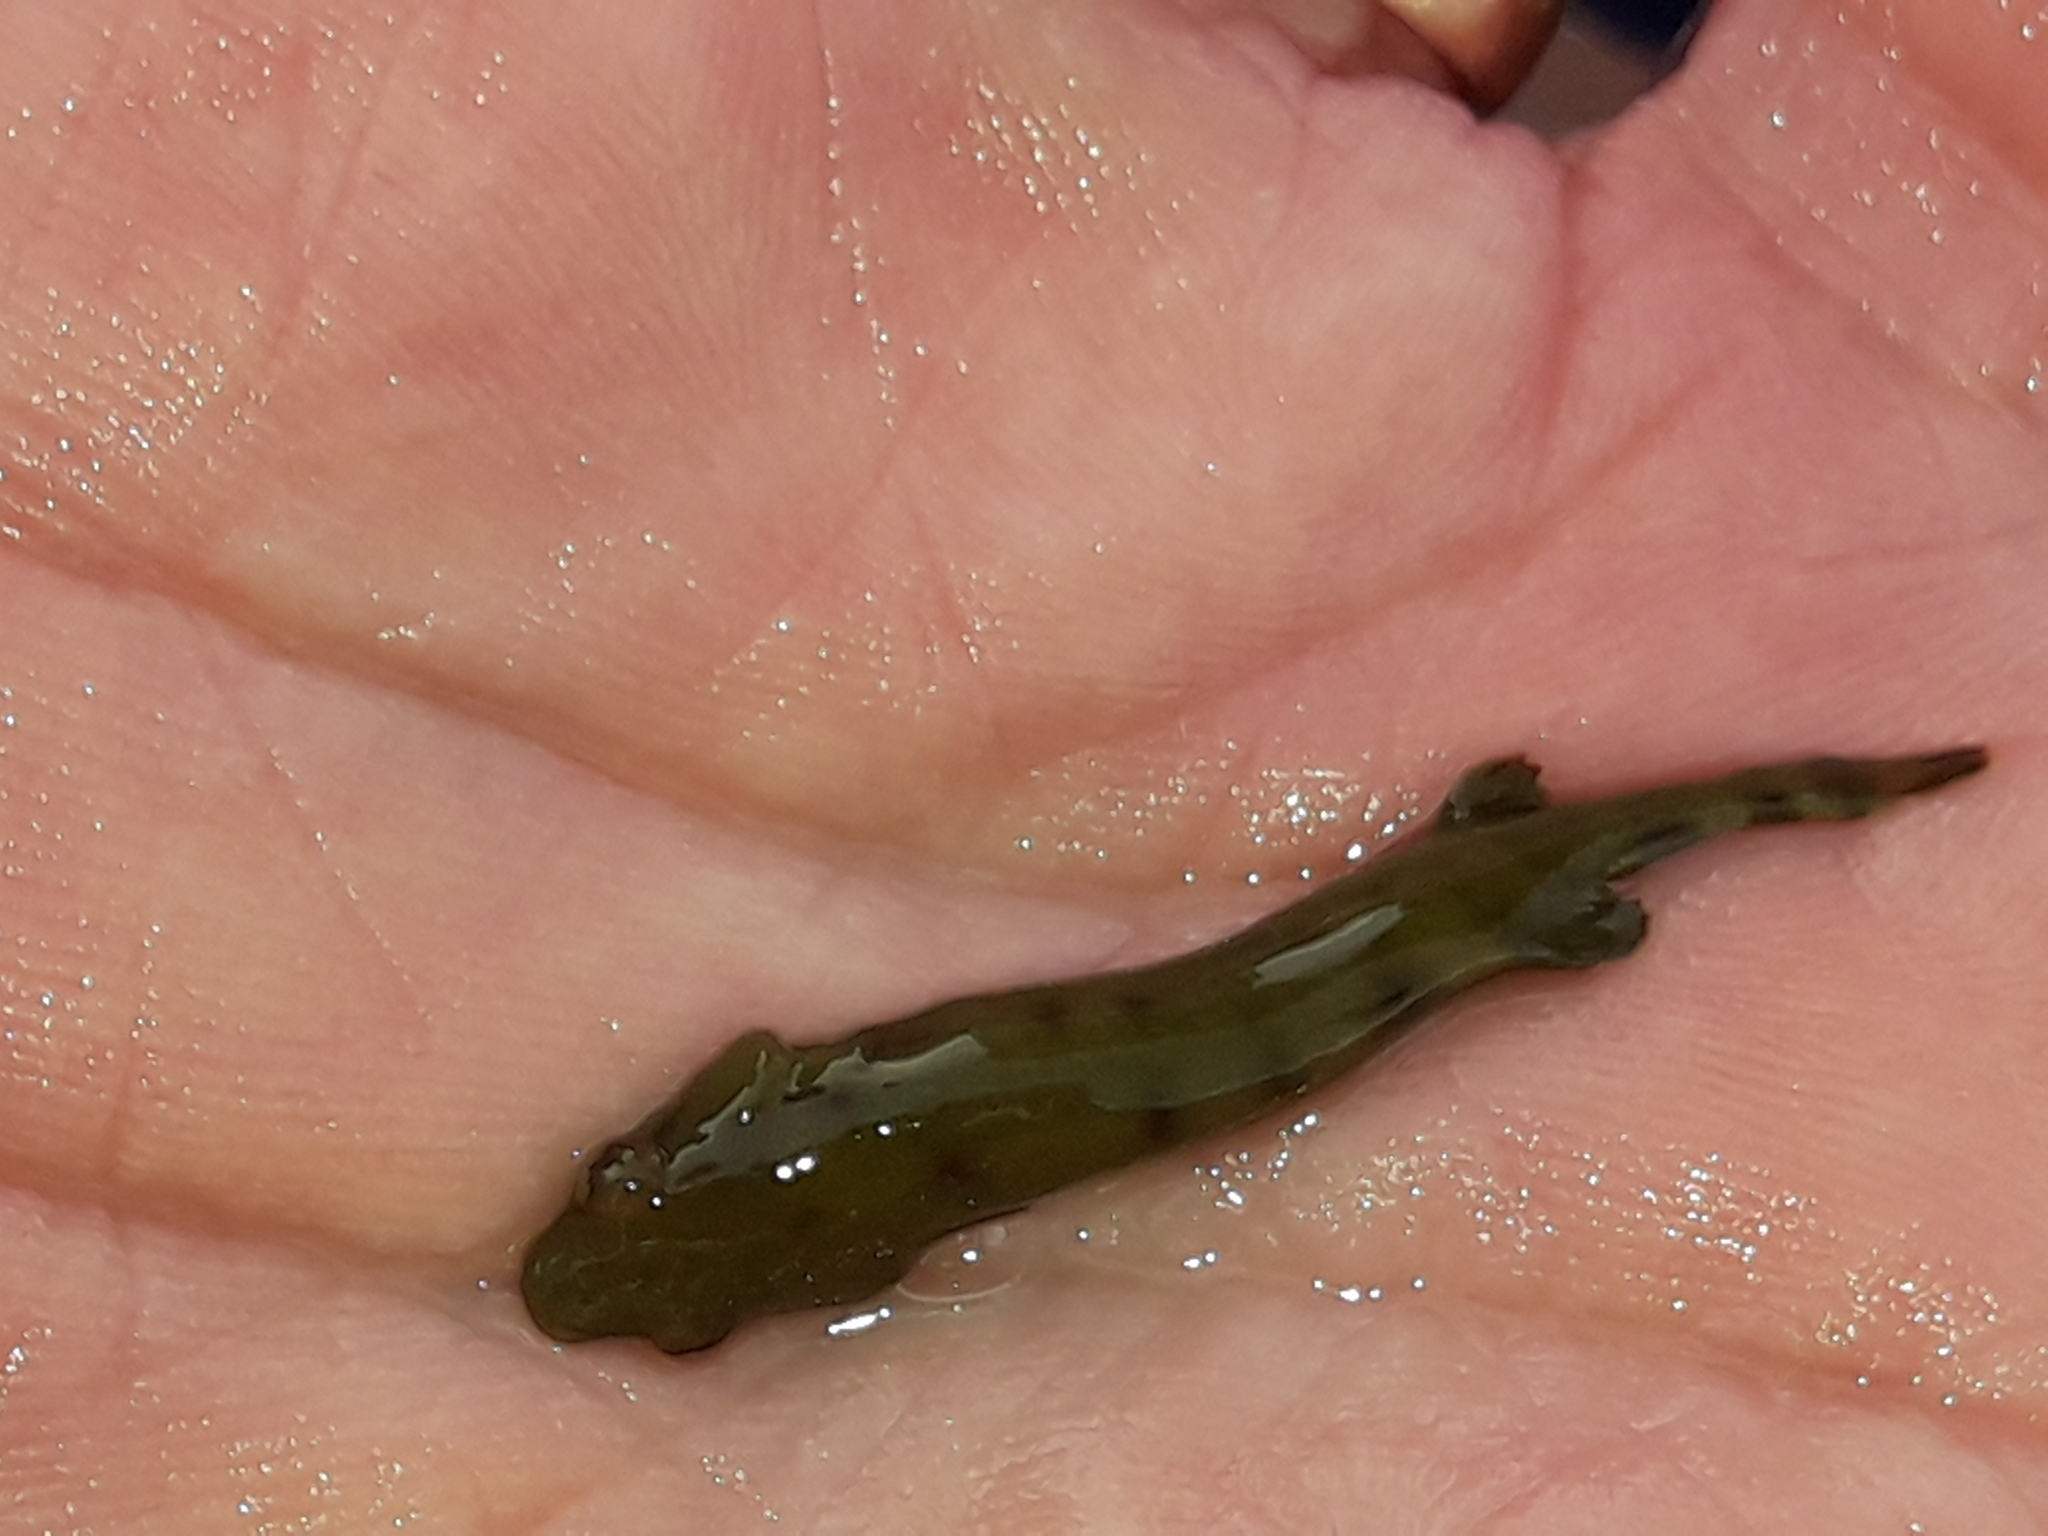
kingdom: Animalia
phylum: Chordata
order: Gobiesociformes
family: Gobiesocidae
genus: Gastroscyphus
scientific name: Gastroscyphus hectoris
